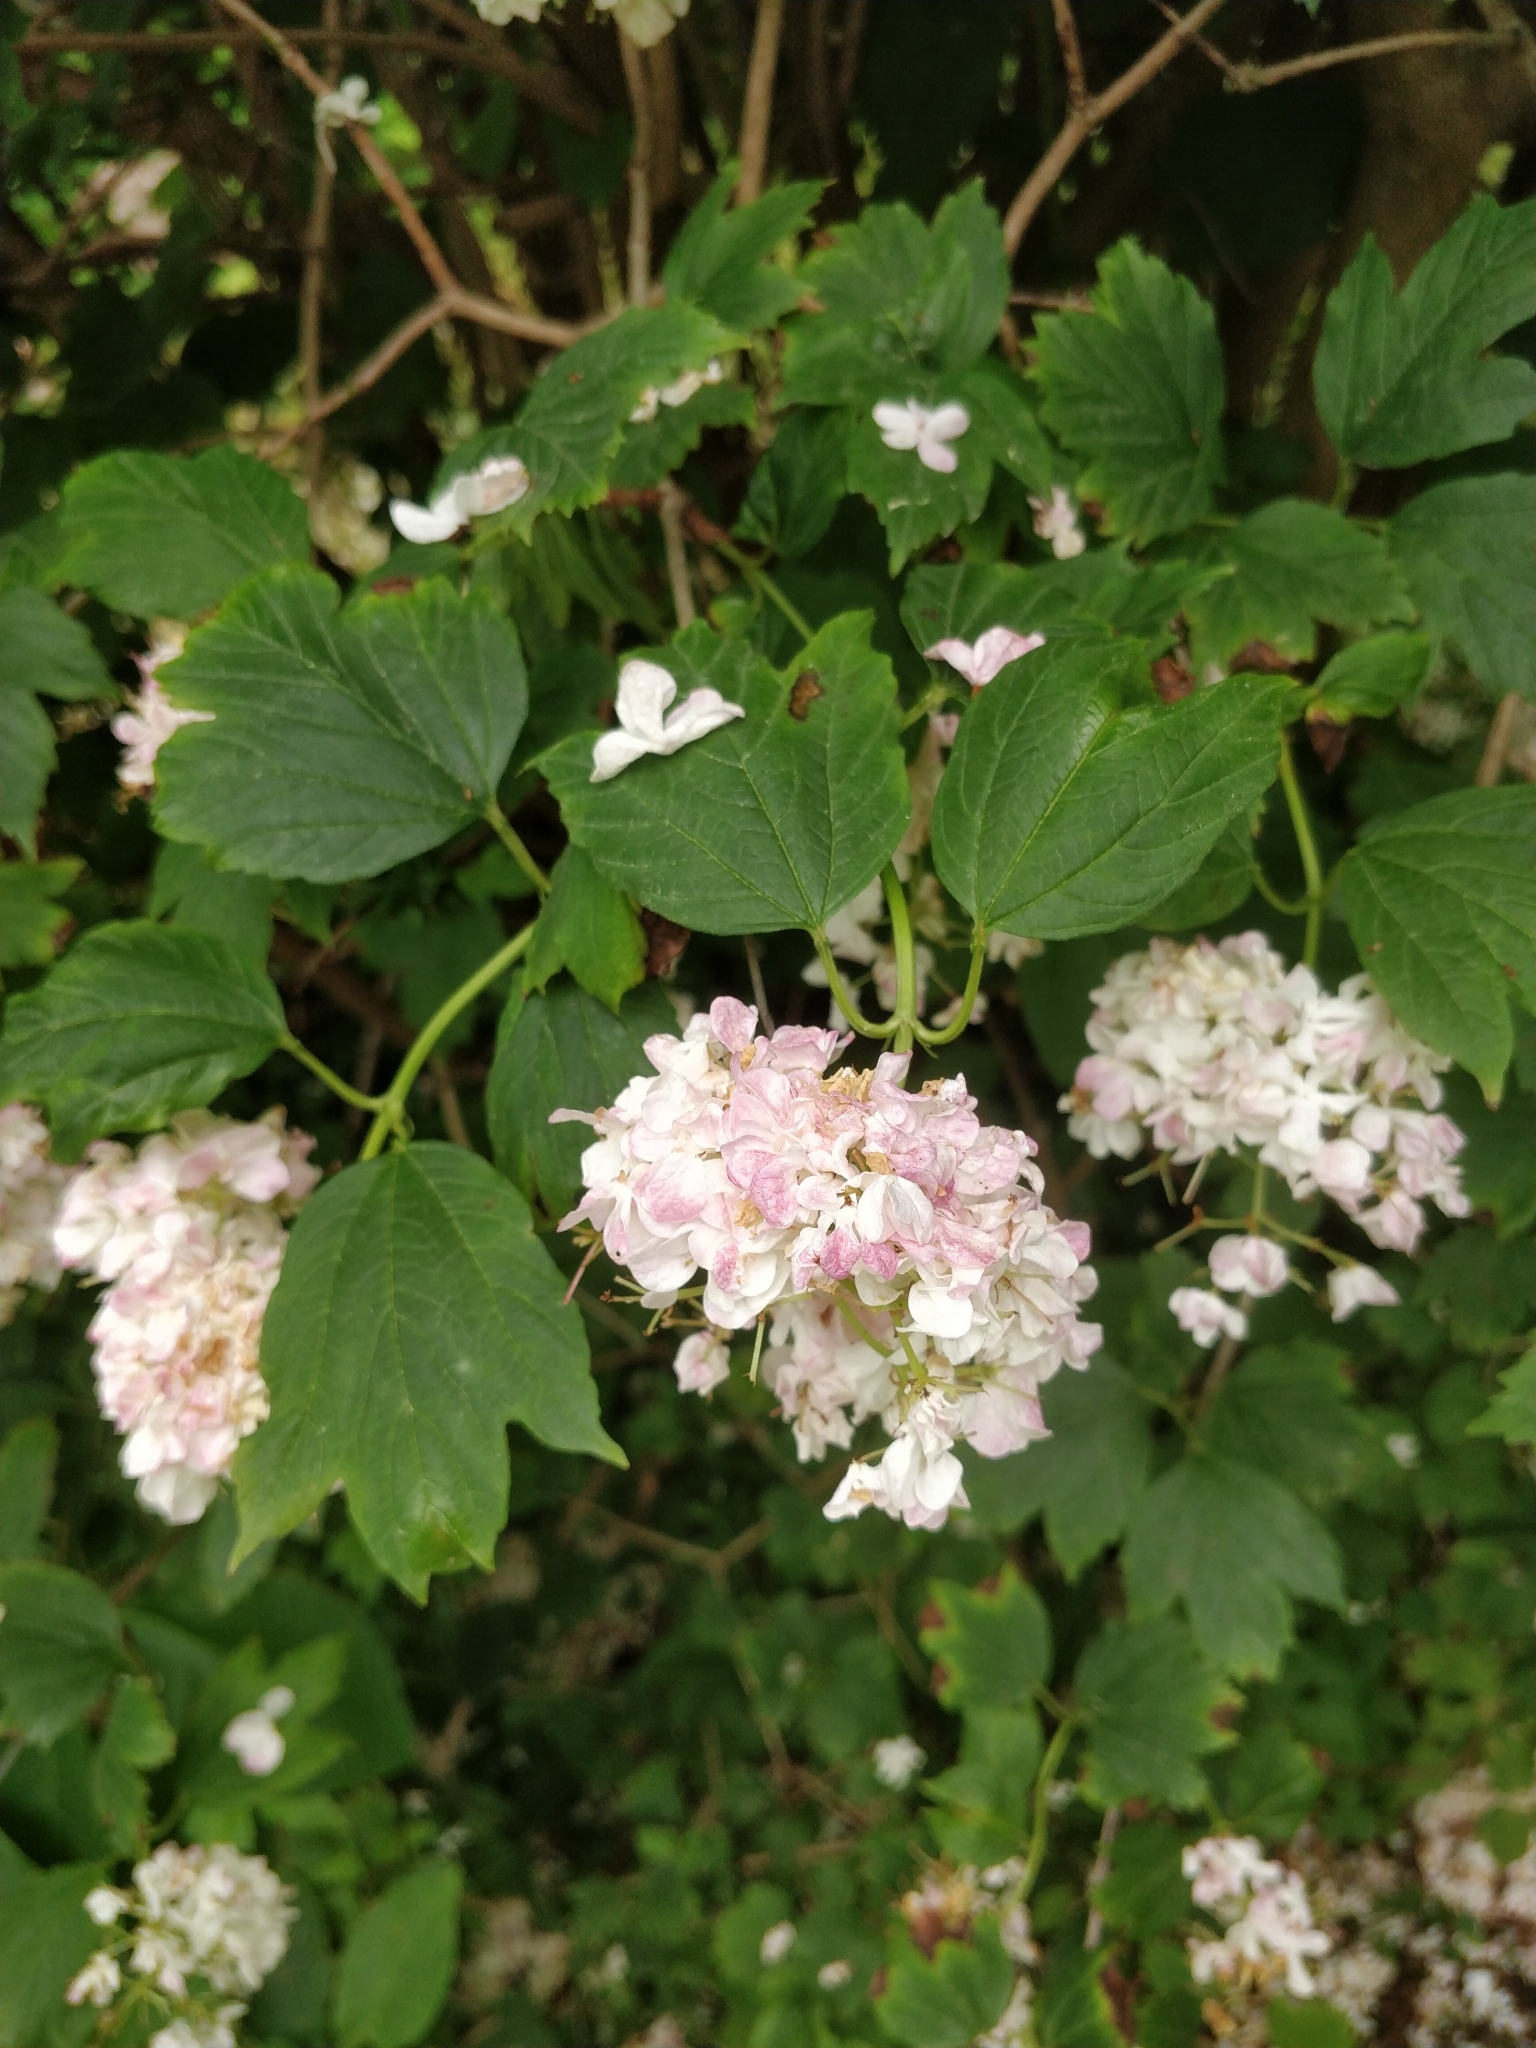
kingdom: Plantae
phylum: Tracheophyta
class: Magnoliopsida
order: Dipsacales
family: Viburnaceae
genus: Viburnum
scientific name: Viburnum opulus
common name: Guelder-rose
